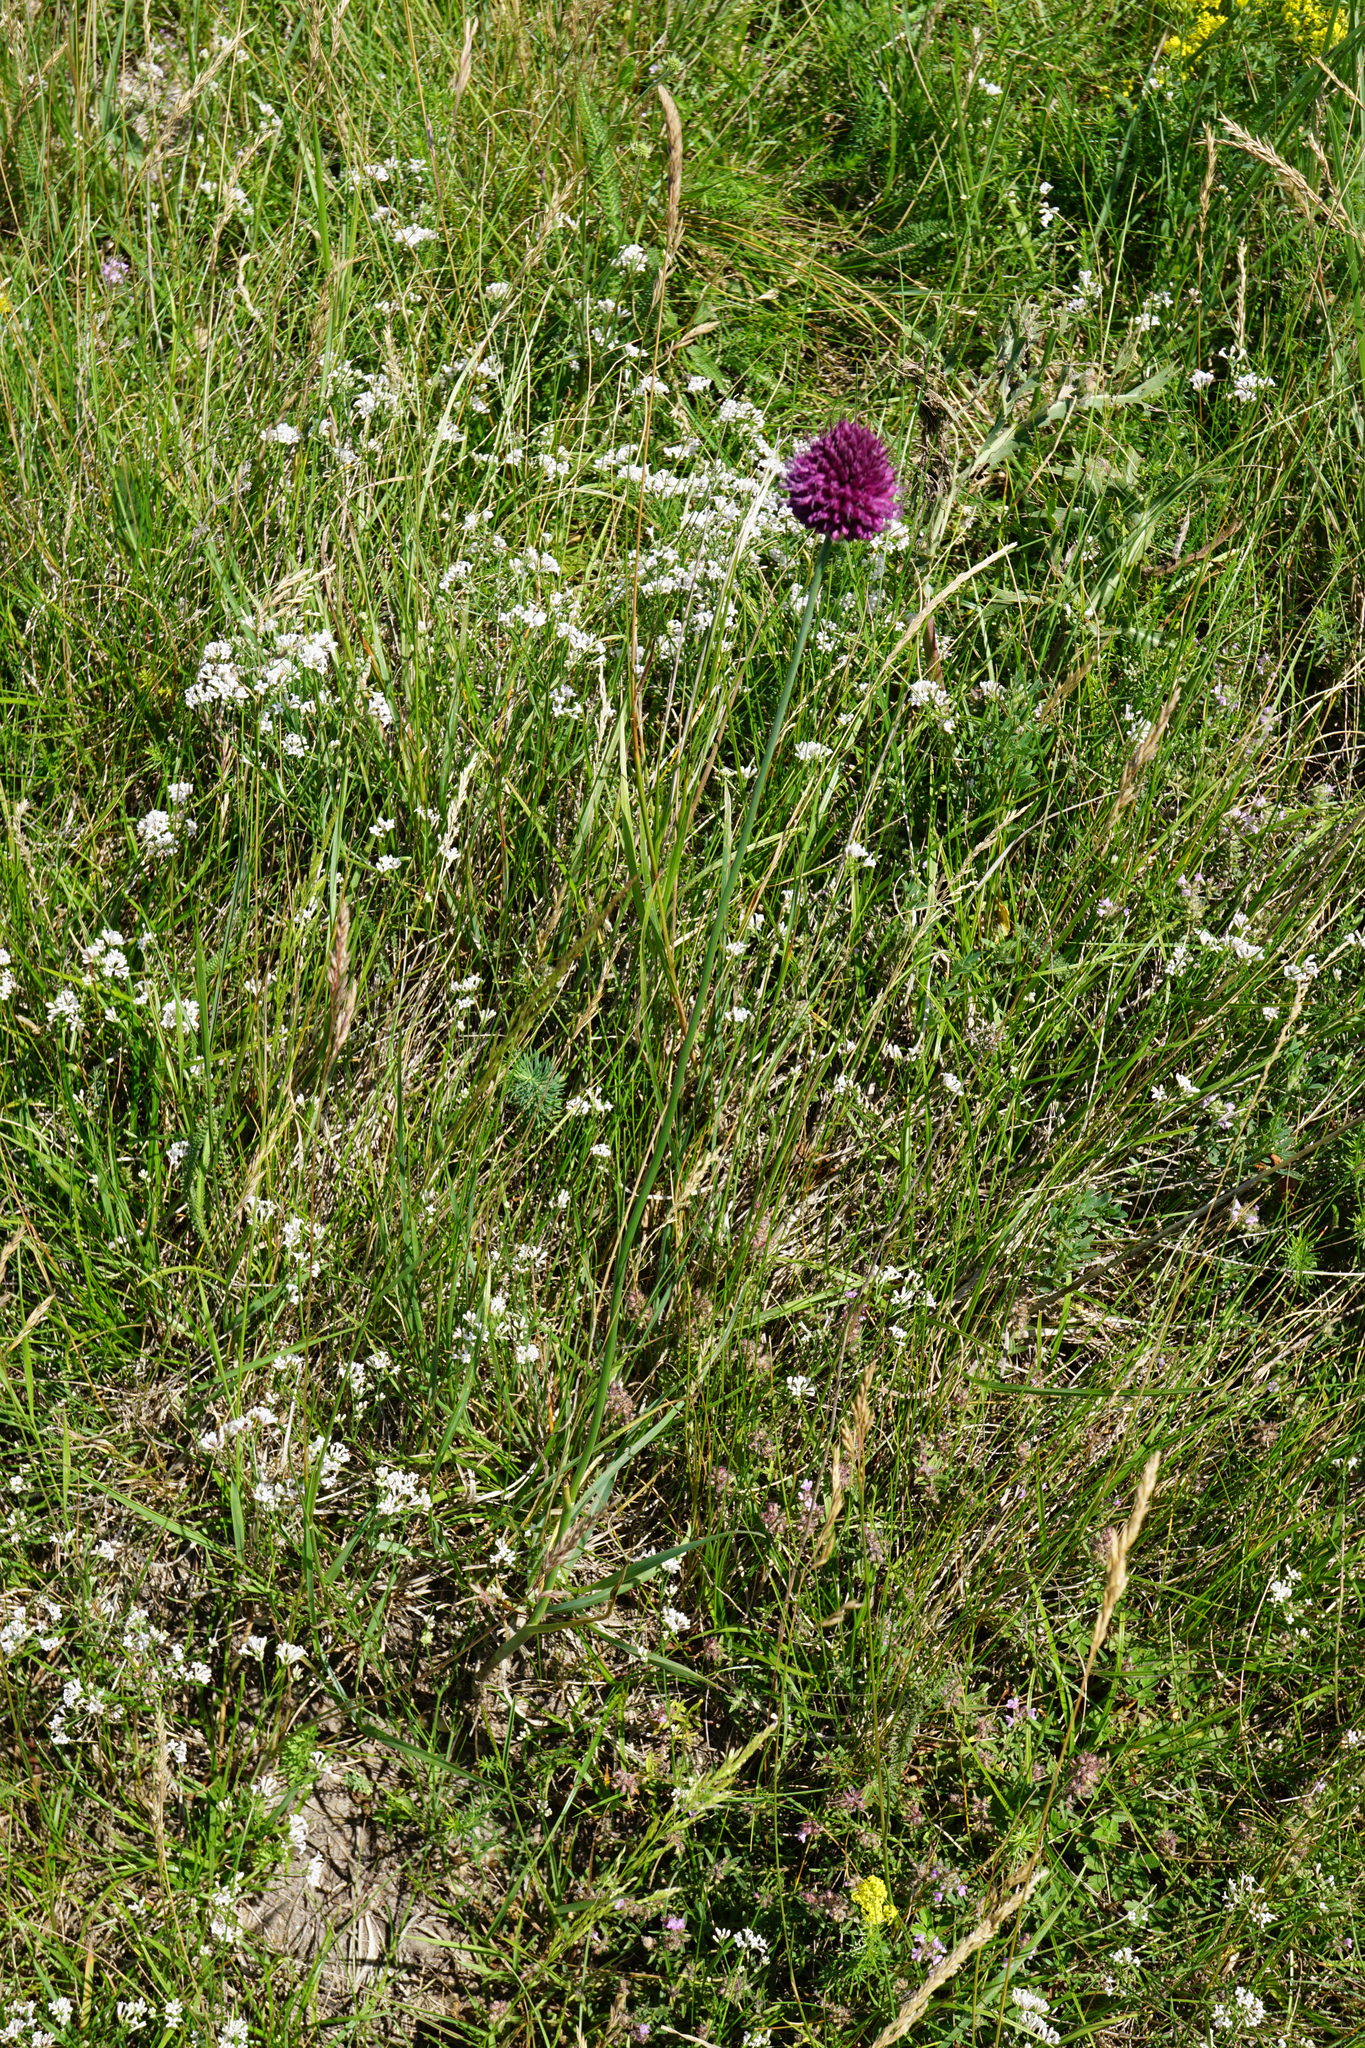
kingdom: Plantae
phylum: Tracheophyta
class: Liliopsida
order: Asparagales
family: Amaryllidaceae
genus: Allium
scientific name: Allium sphaerocephalon
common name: Round-headed leek
